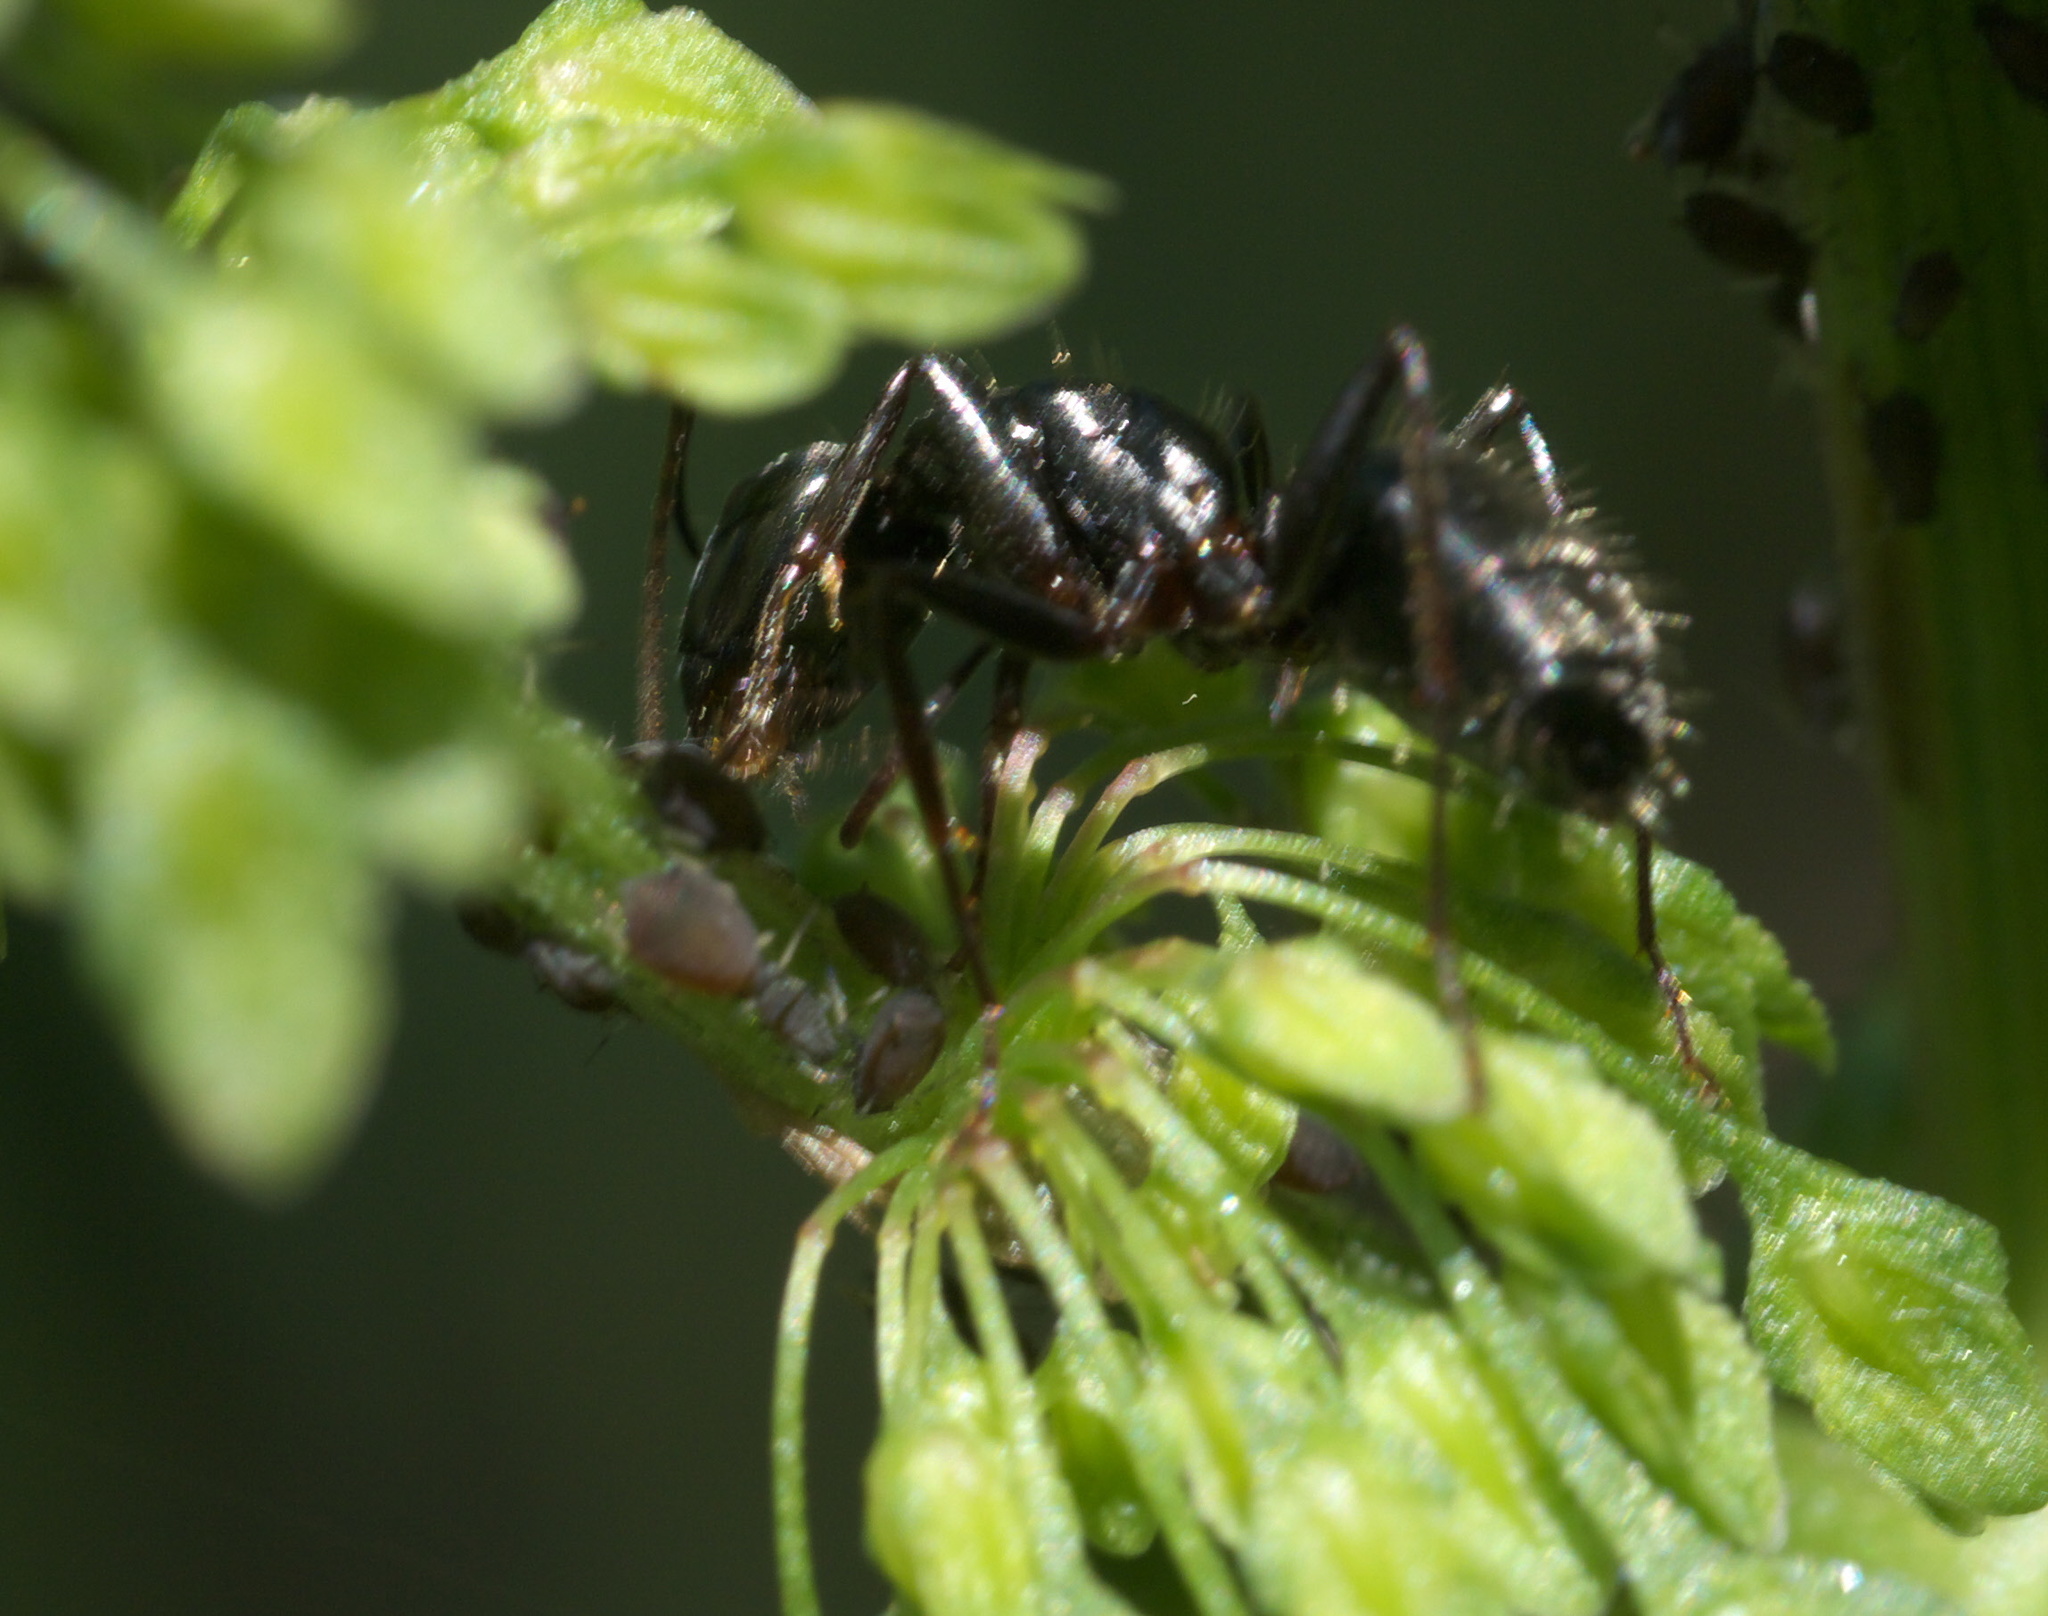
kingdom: Animalia
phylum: Arthropoda
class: Insecta
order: Hymenoptera
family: Formicidae
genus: Camponotus
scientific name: Camponotus pennsylvanicus
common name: Black carpenter ant
